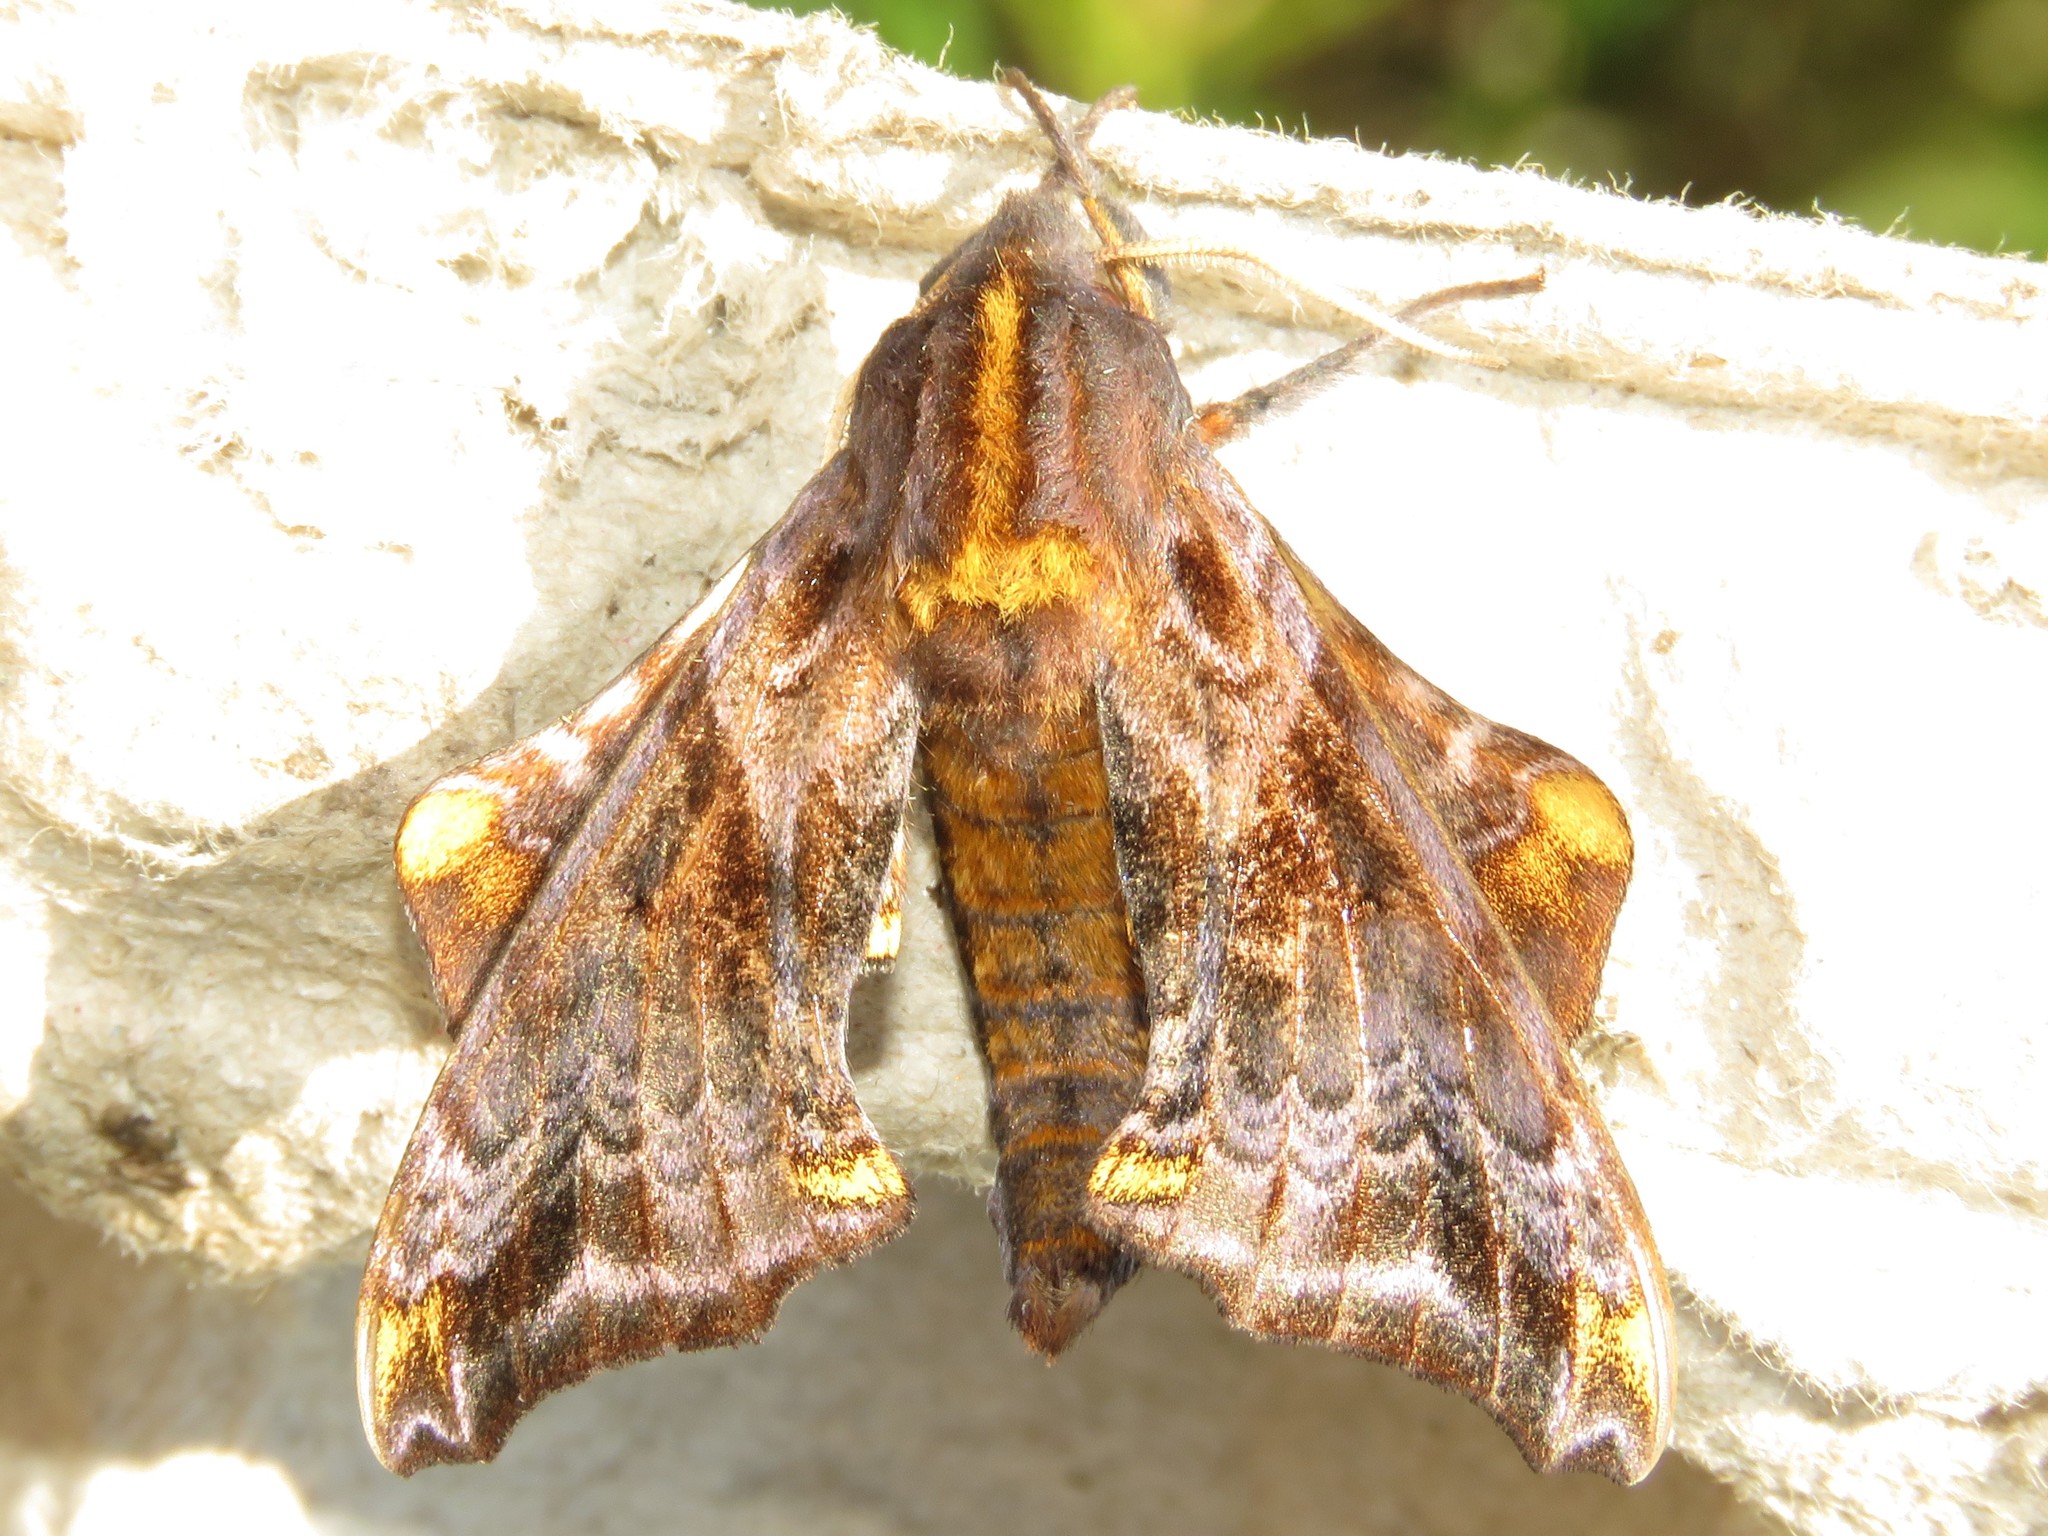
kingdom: Animalia
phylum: Arthropoda
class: Insecta
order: Lepidoptera
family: Sphingidae
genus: Paonias
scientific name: Paonias myops
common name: Small-eyed sphinx
